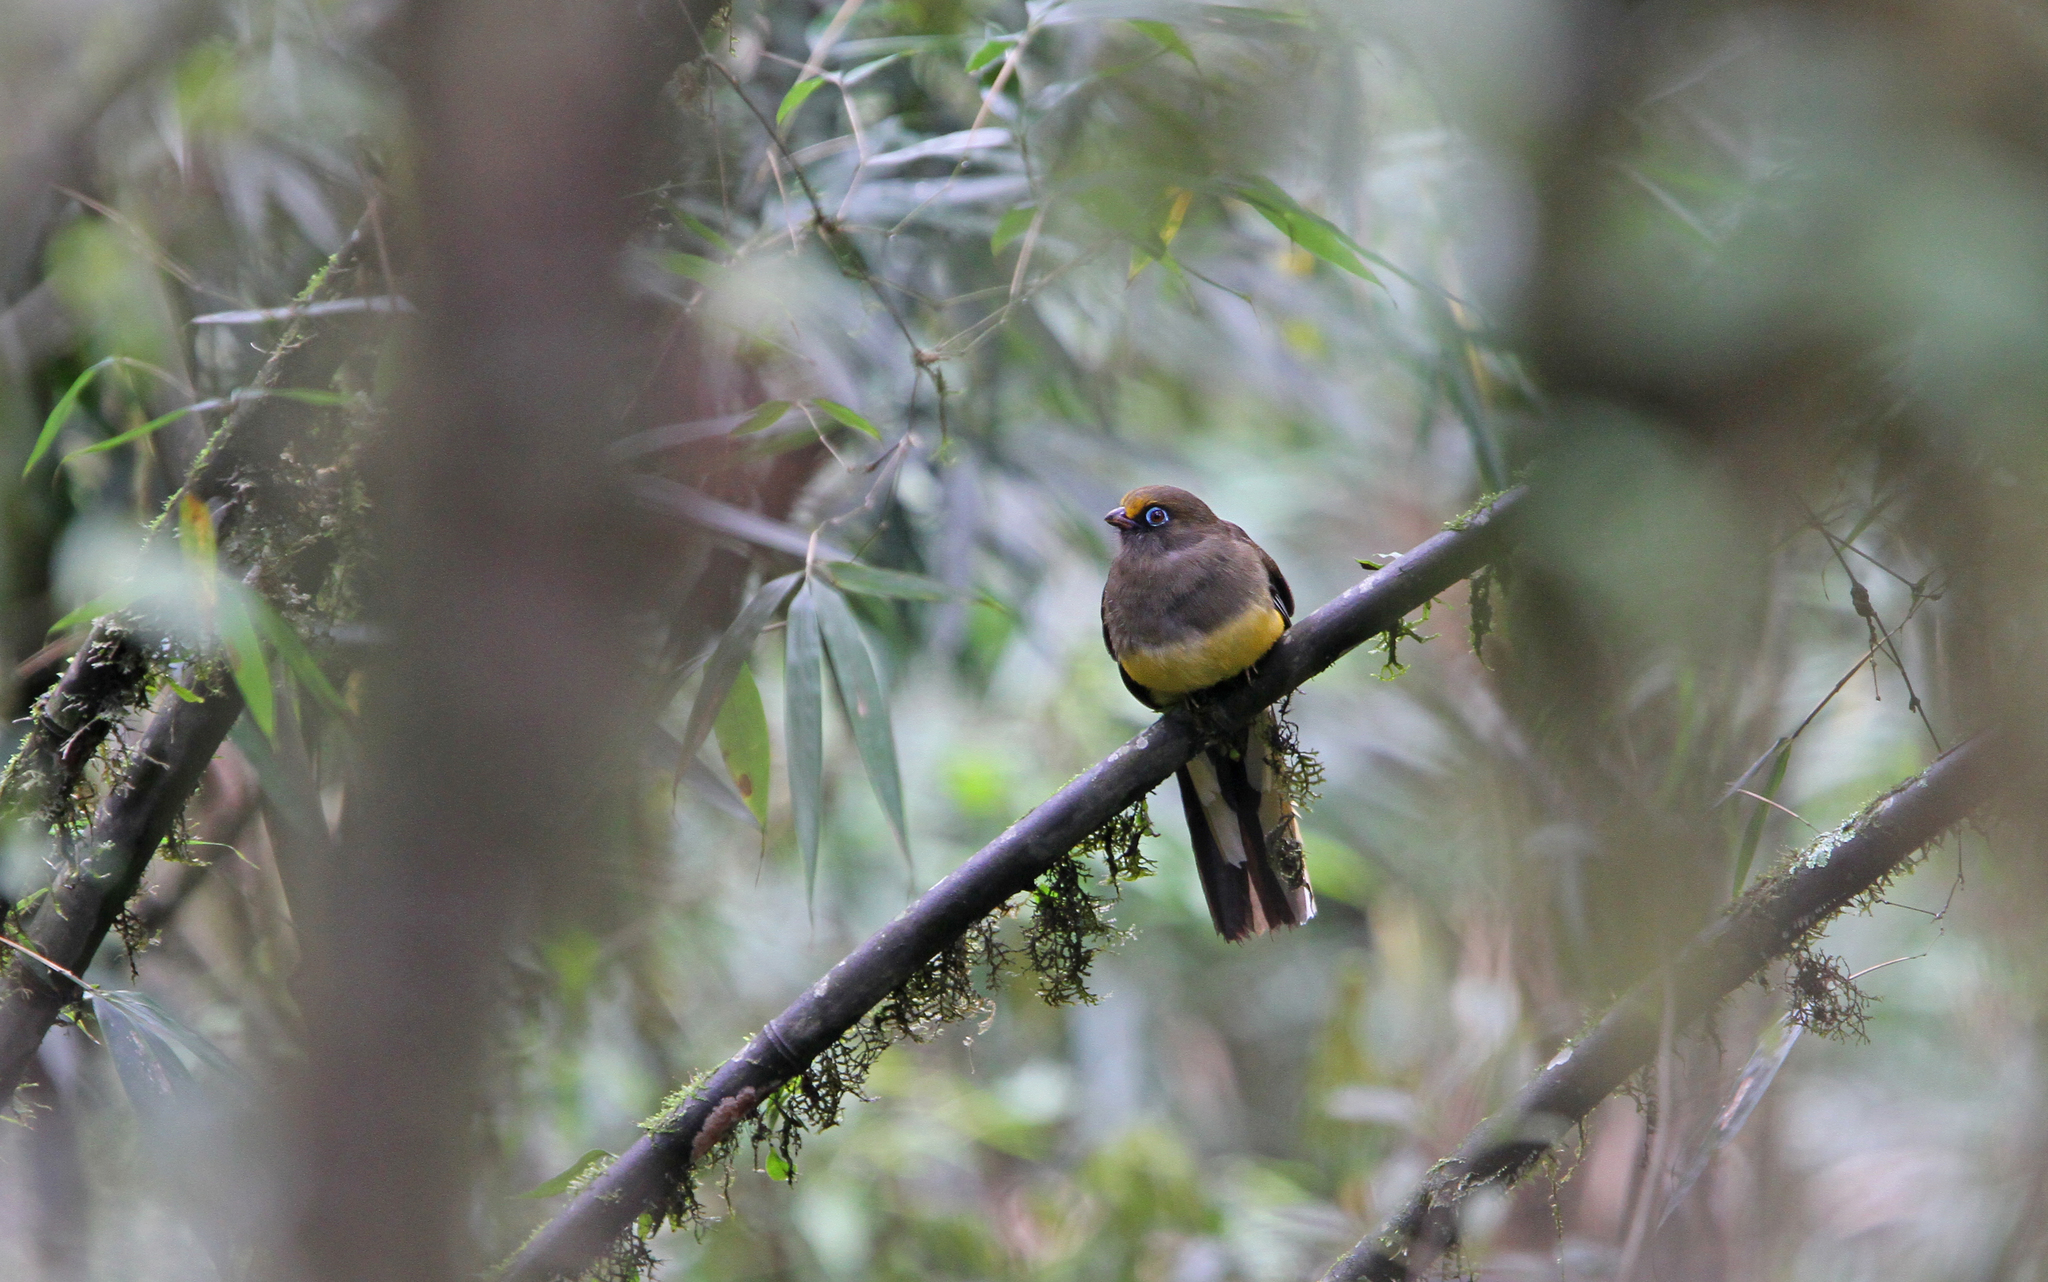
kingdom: Animalia
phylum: Chordata
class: Aves
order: Trogoniformes
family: Trogonidae
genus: Harpactes
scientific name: Harpactes wardi
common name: Ward's trogon
